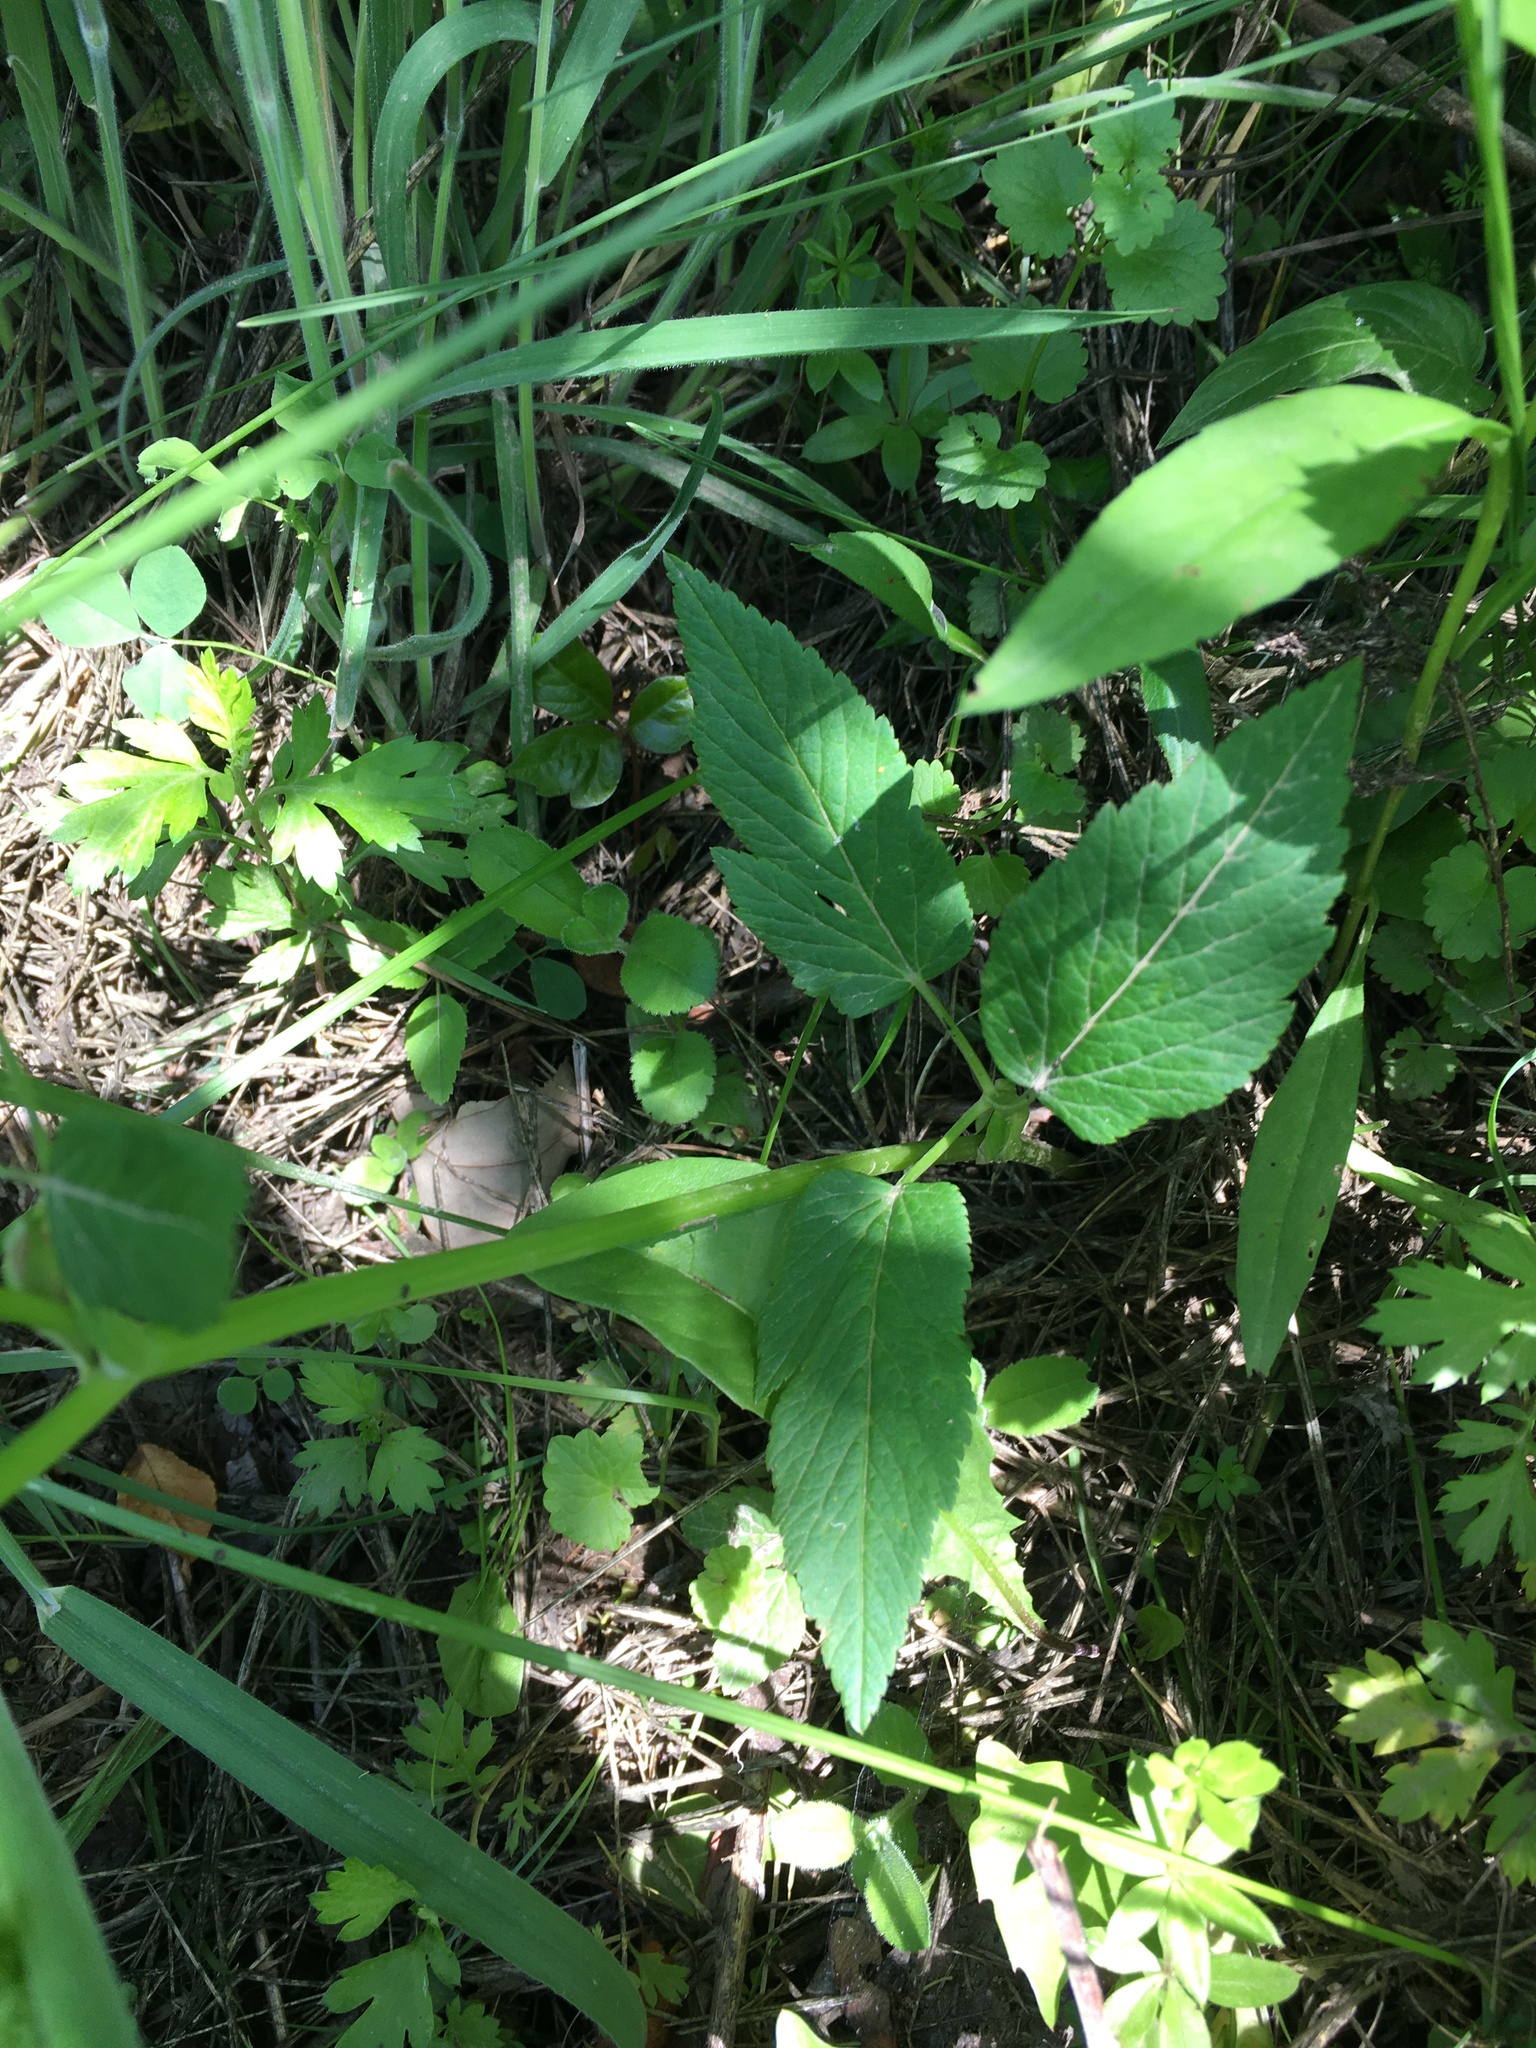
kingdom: Plantae
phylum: Tracheophyta
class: Magnoliopsida
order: Apiales
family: Apiaceae
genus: Aegopodium
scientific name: Aegopodium podagraria
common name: Ground-elder
